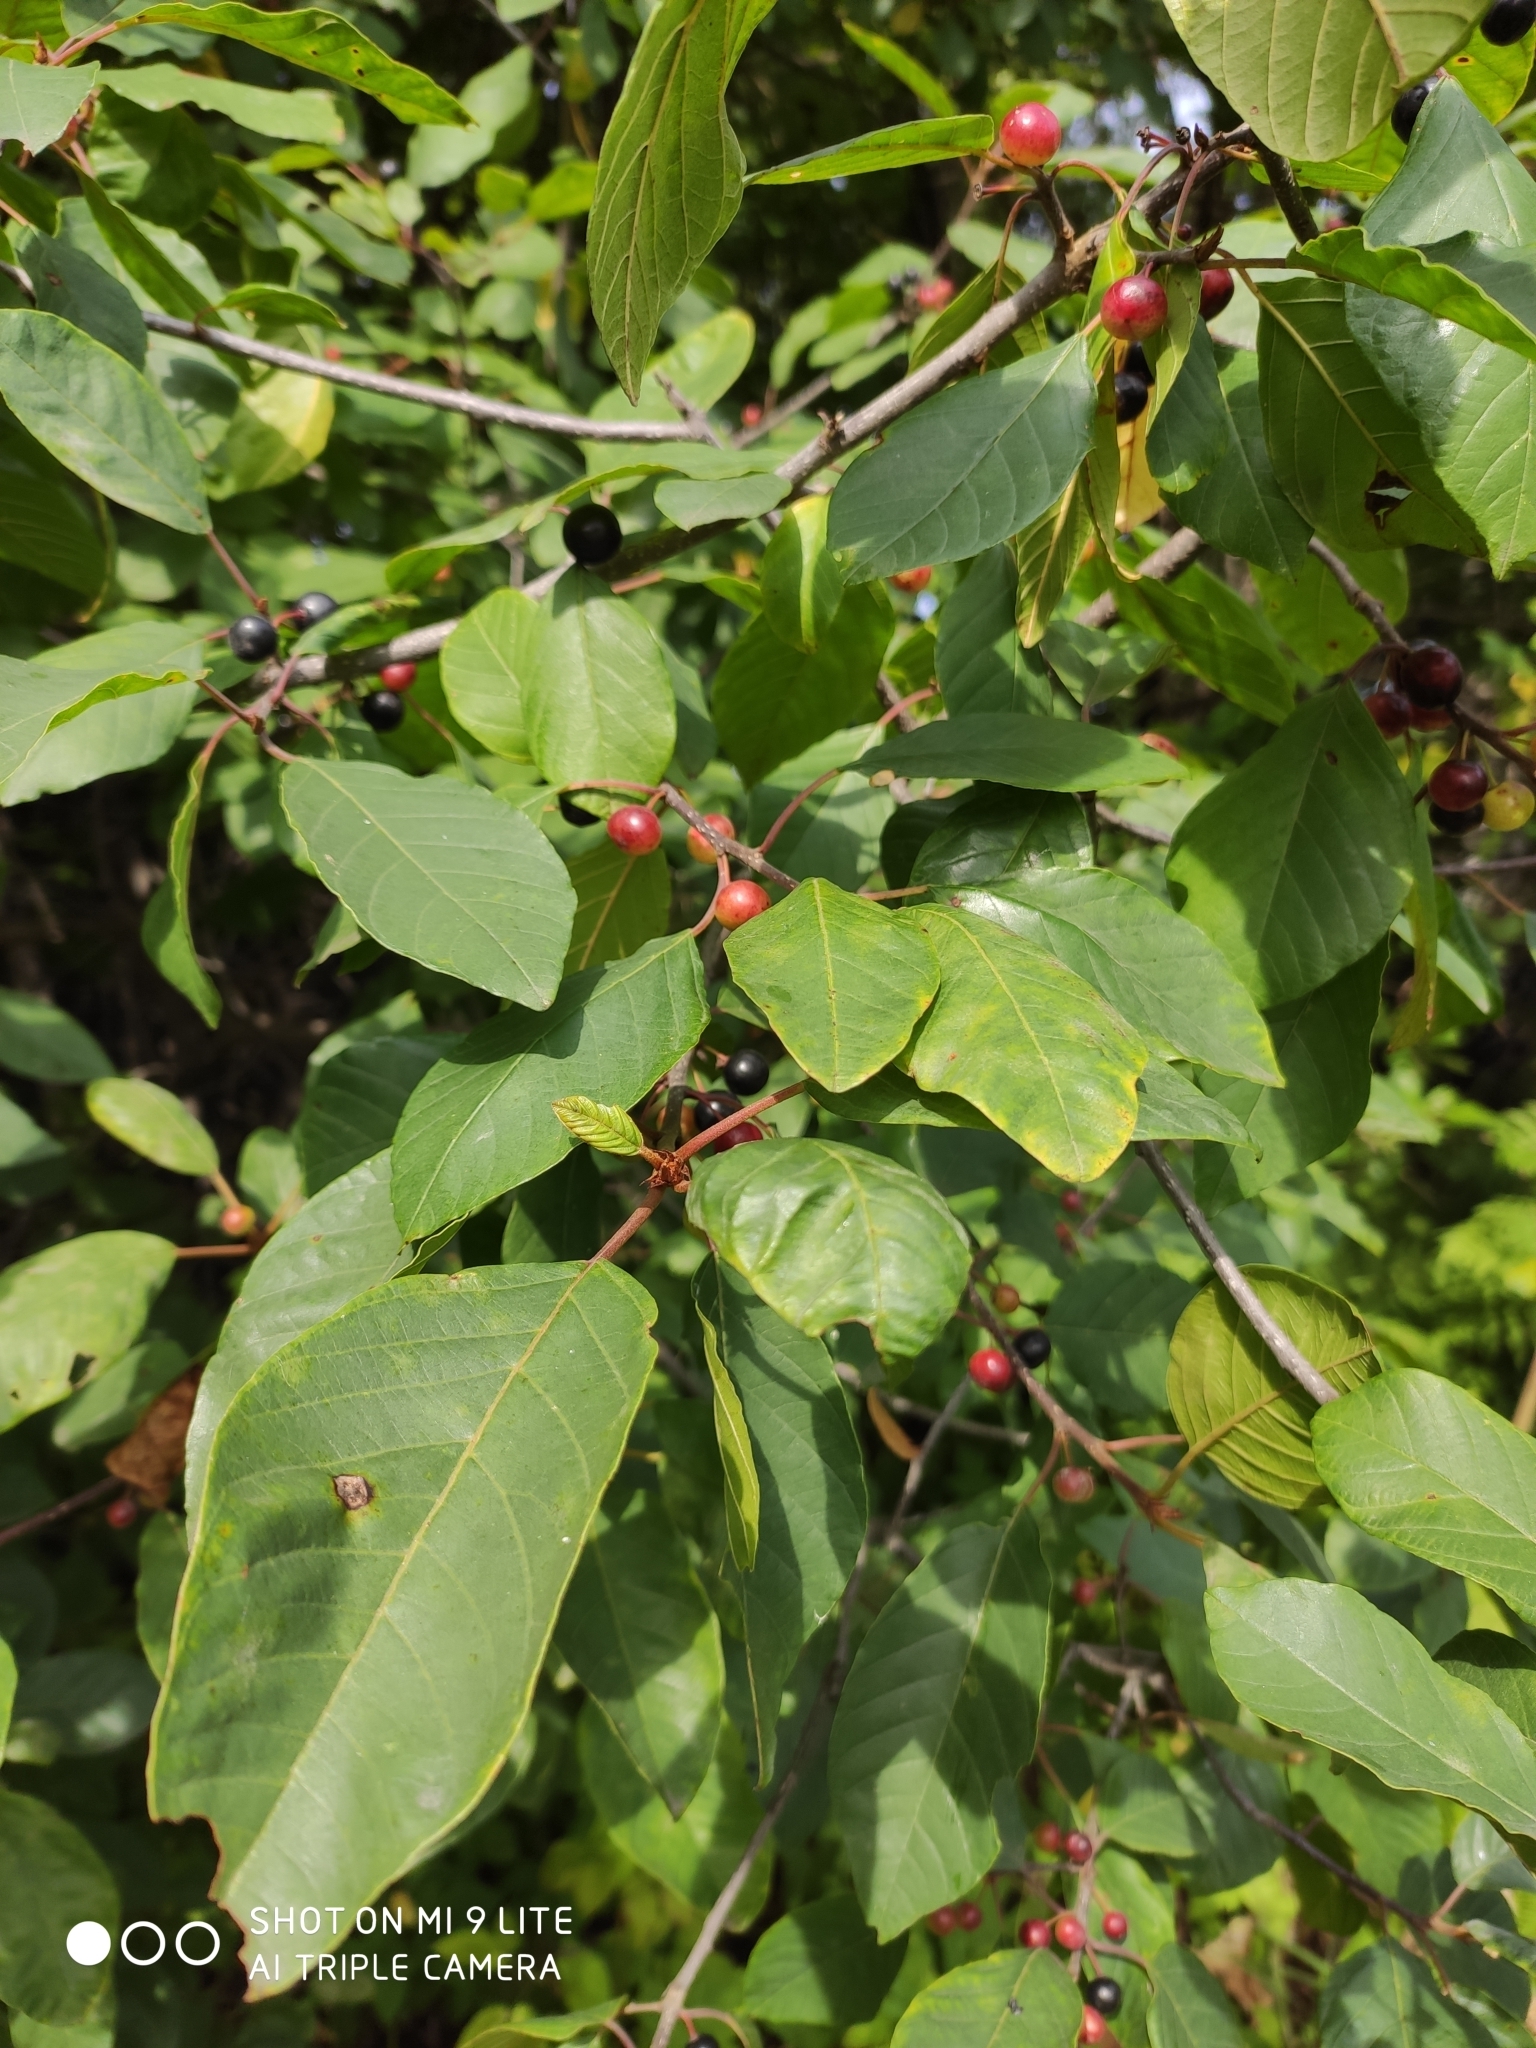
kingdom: Plantae
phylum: Tracheophyta
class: Magnoliopsida
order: Rosales
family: Rhamnaceae
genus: Frangula
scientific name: Frangula alnus
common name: Alder buckthorn
